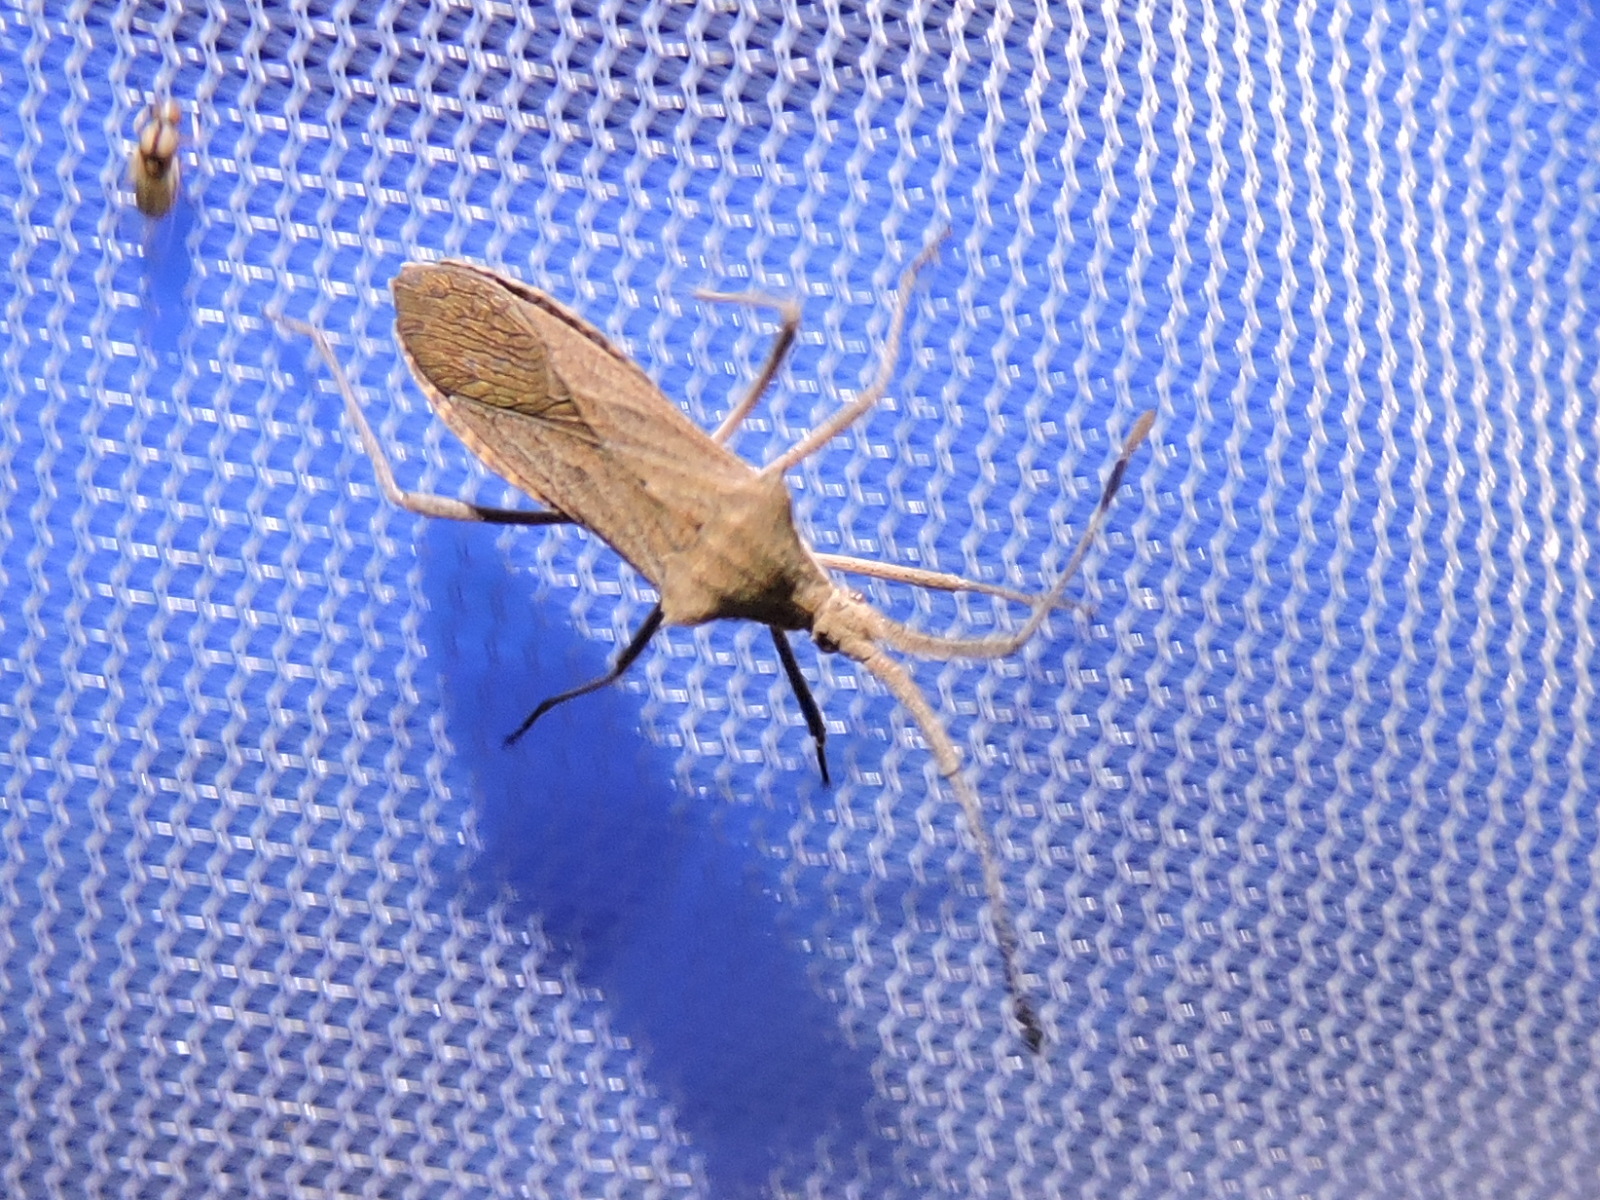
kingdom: Animalia
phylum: Arthropoda
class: Insecta
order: Hemiptera
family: Coreidae
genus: Chariesterus
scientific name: Chariesterus antennator
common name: Flat horned coreid
